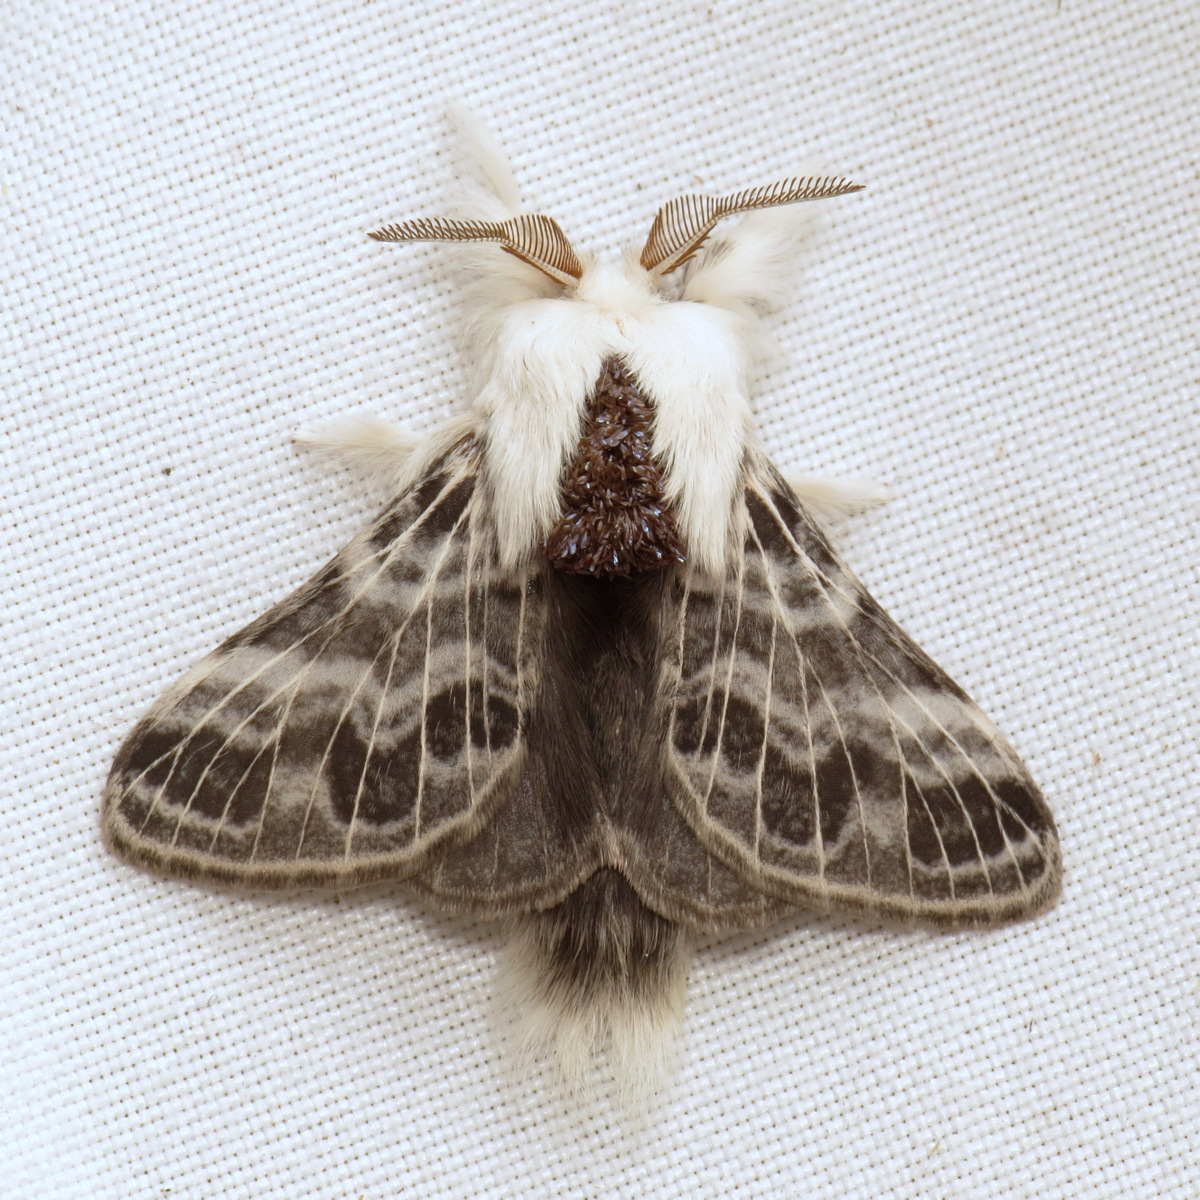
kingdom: Animalia
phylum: Arthropoda
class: Insecta
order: Lepidoptera
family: Lasiocampidae
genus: Tolype
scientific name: Tolype laricis
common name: Larch tolype moth
